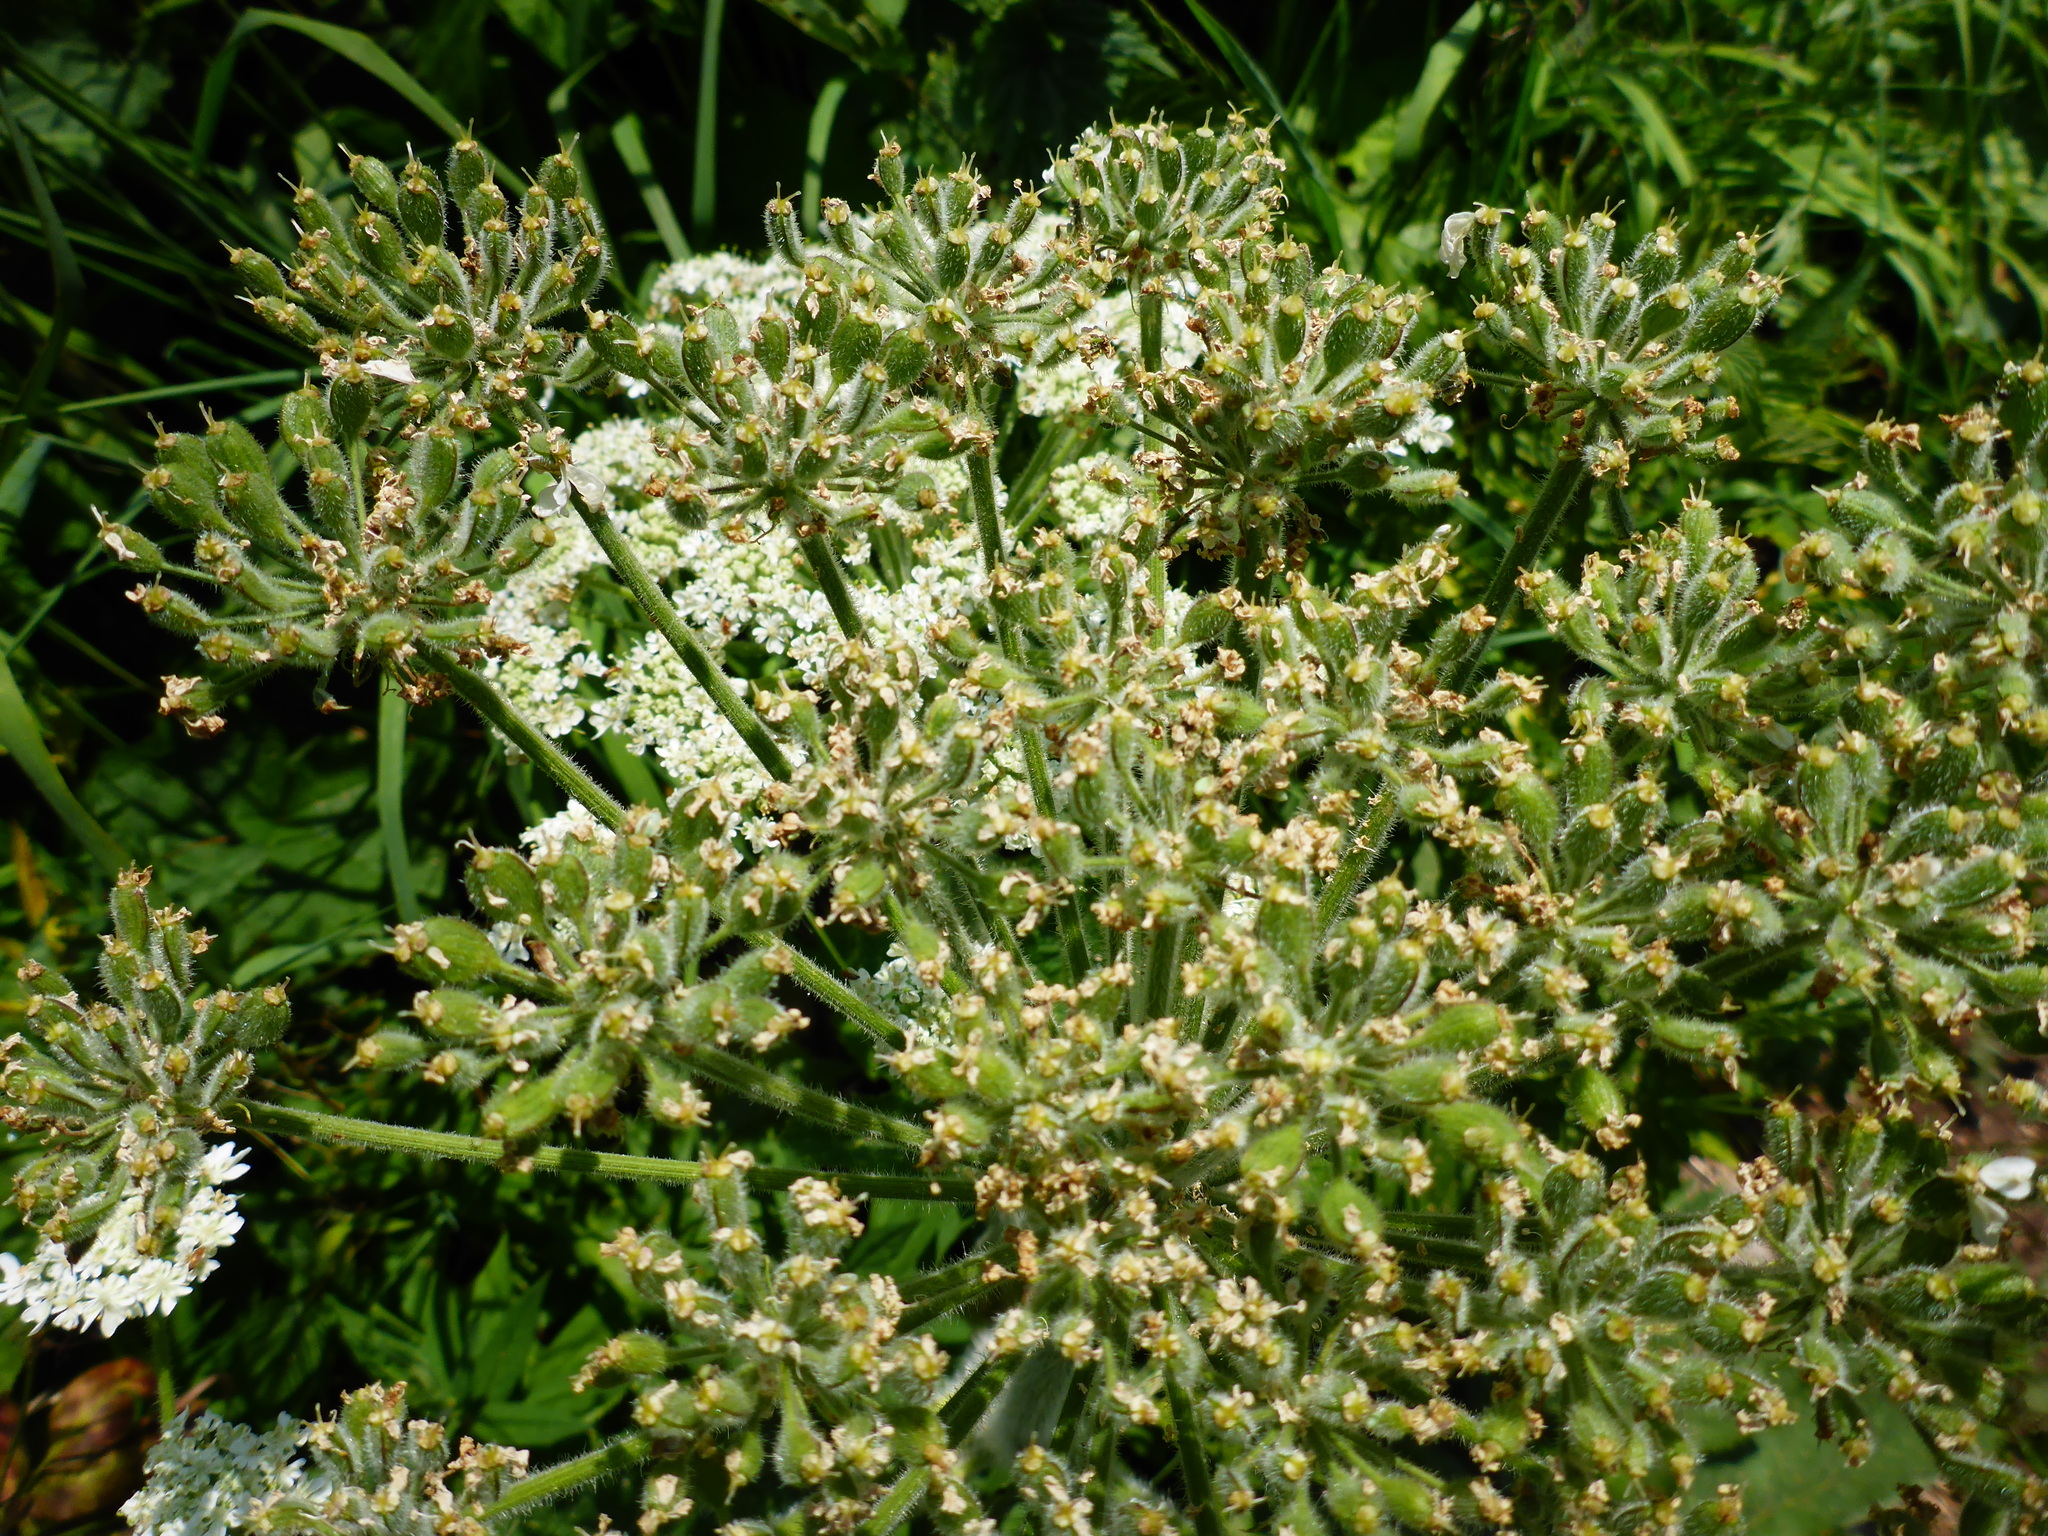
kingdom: Plantae
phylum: Tracheophyta
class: Magnoliopsida
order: Apiales
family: Apiaceae
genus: Heracleum
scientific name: Heracleum maximum
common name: American cow parsnip
